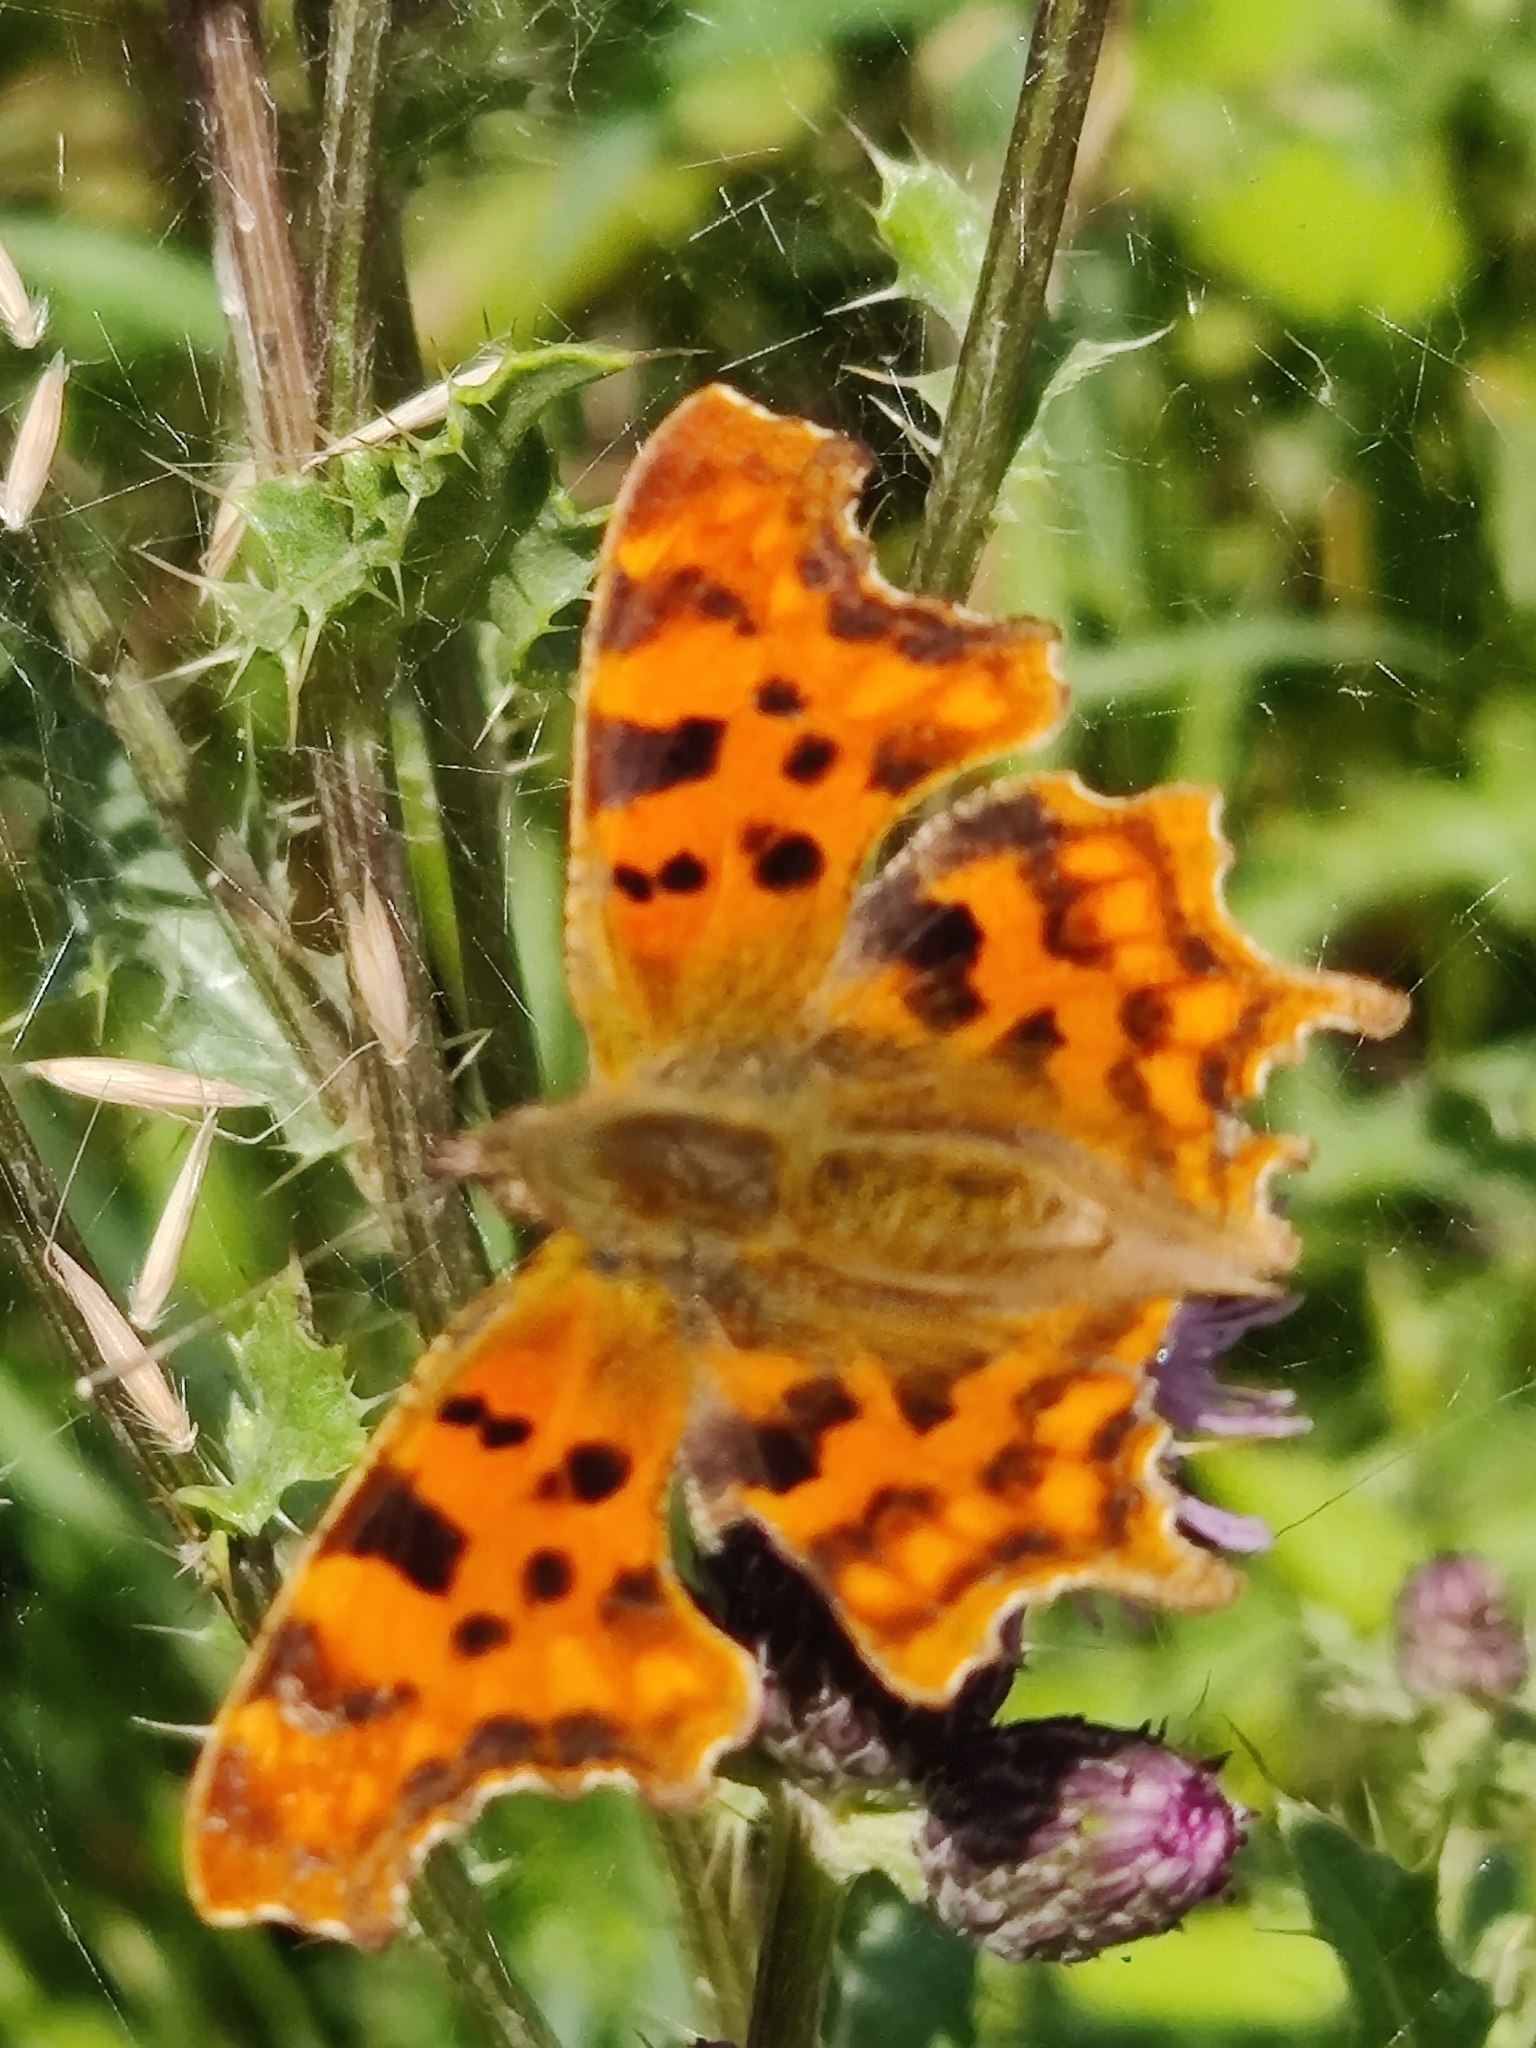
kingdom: Animalia
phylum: Arthropoda
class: Insecta
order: Lepidoptera
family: Nymphalidae
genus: Polygonia
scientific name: Polygonia c-album
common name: Comma
